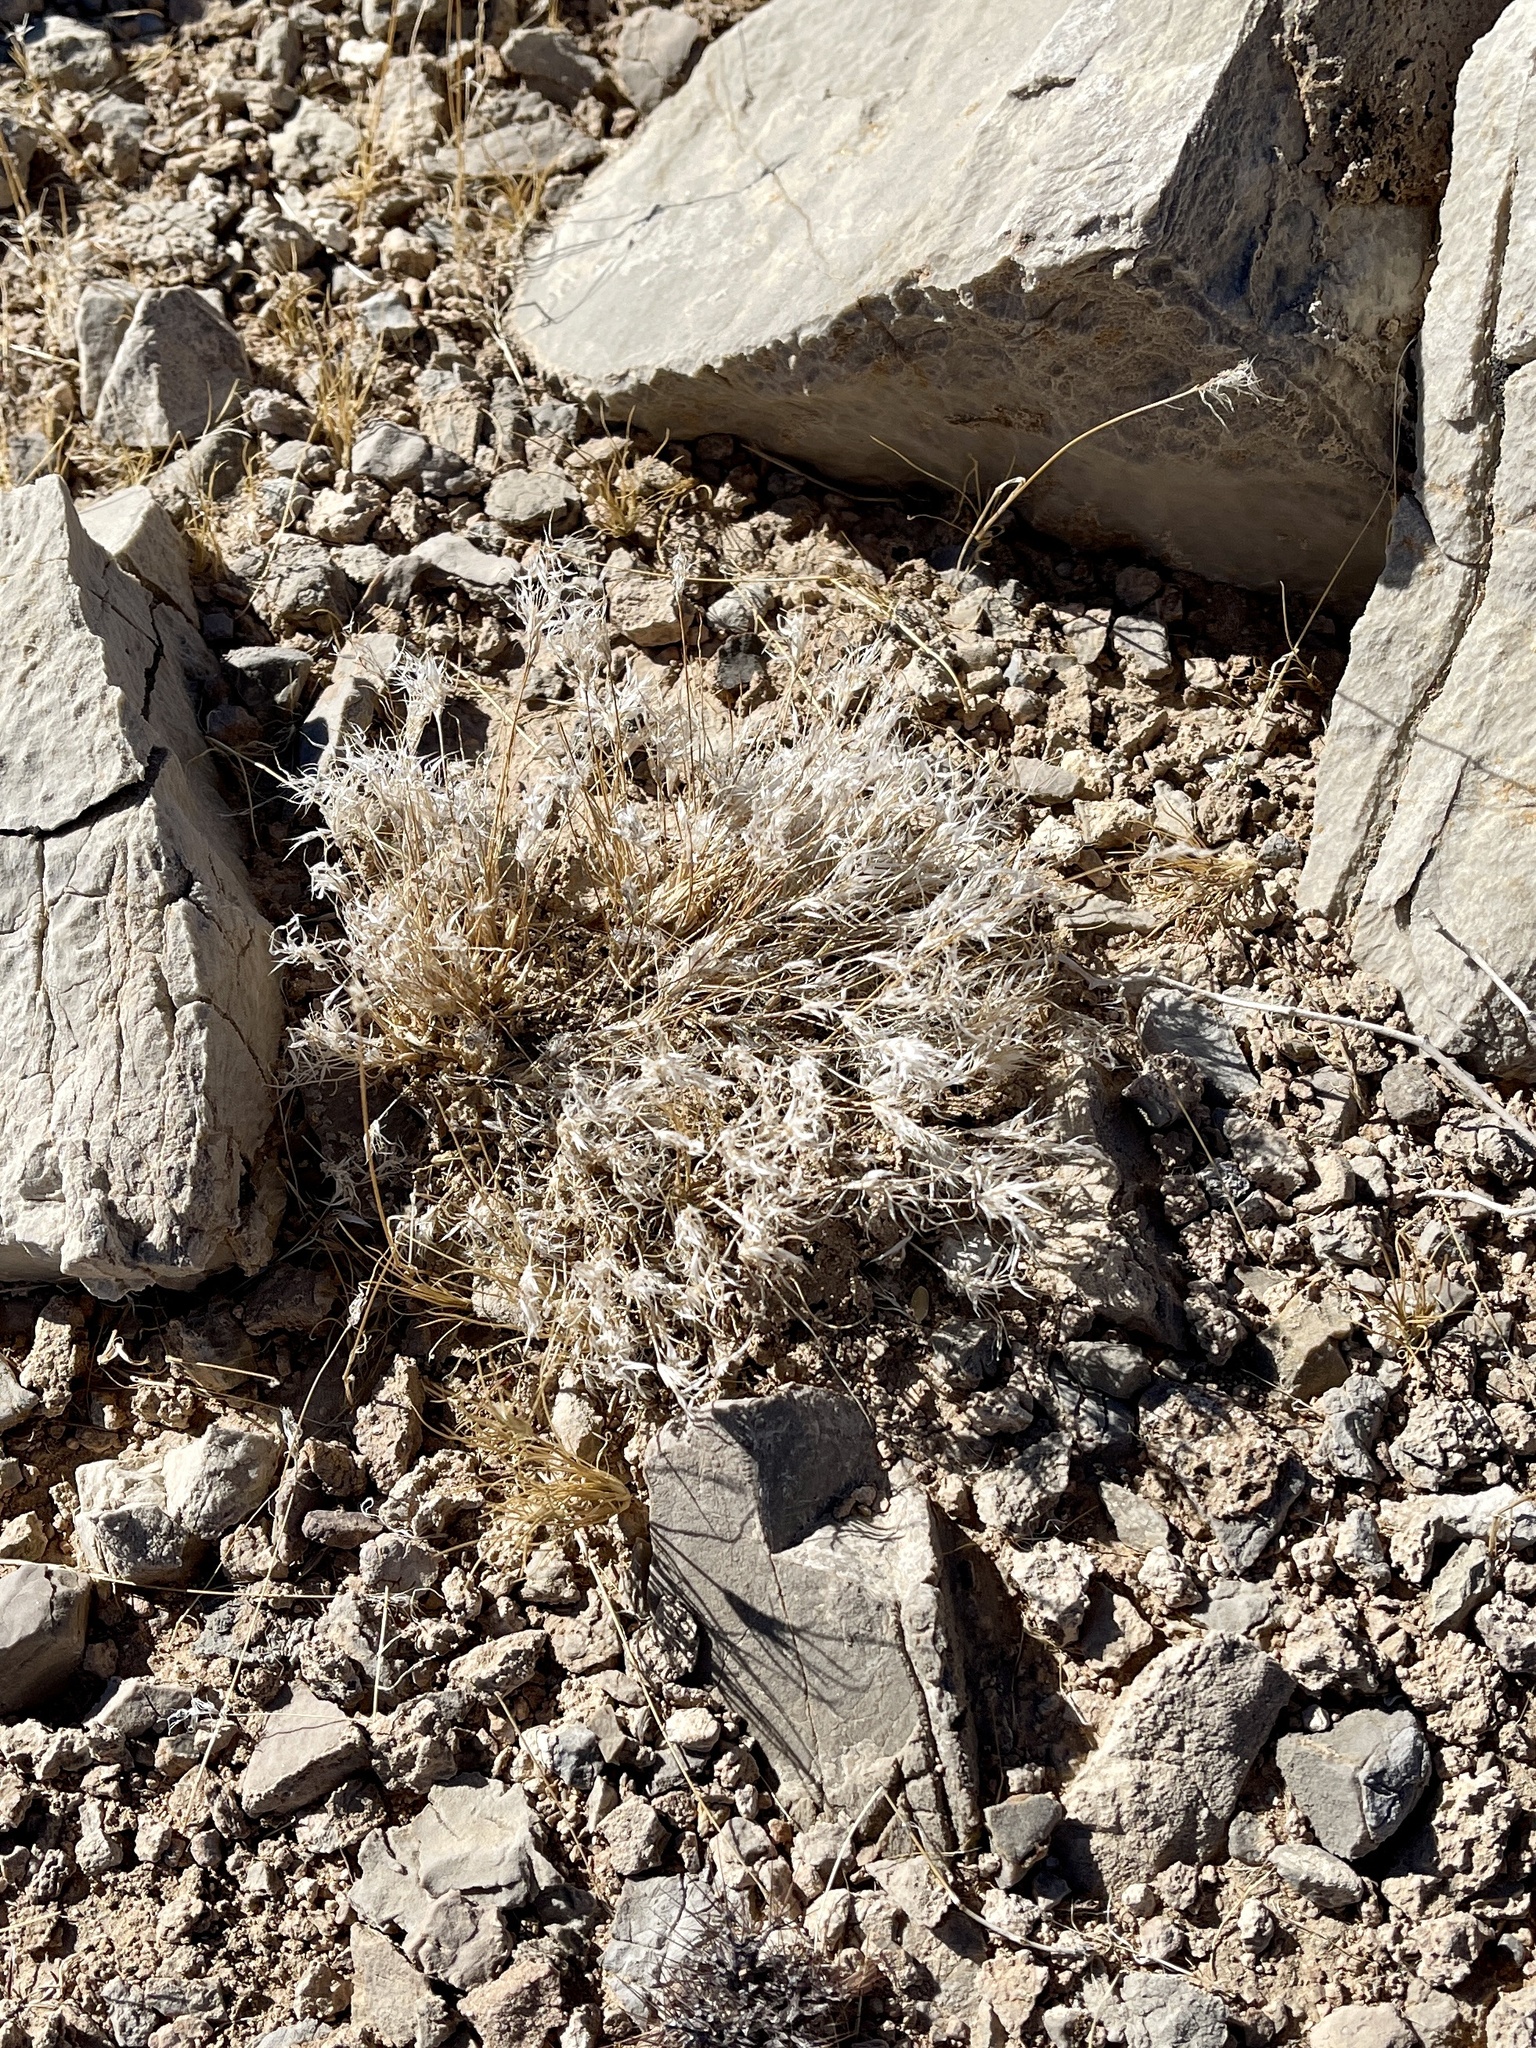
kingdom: Plantae
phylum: Tracheophyta
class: Liliopsida
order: Poales
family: Poaceae
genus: Dasyochloa
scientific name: Dasyochloa pulchella
